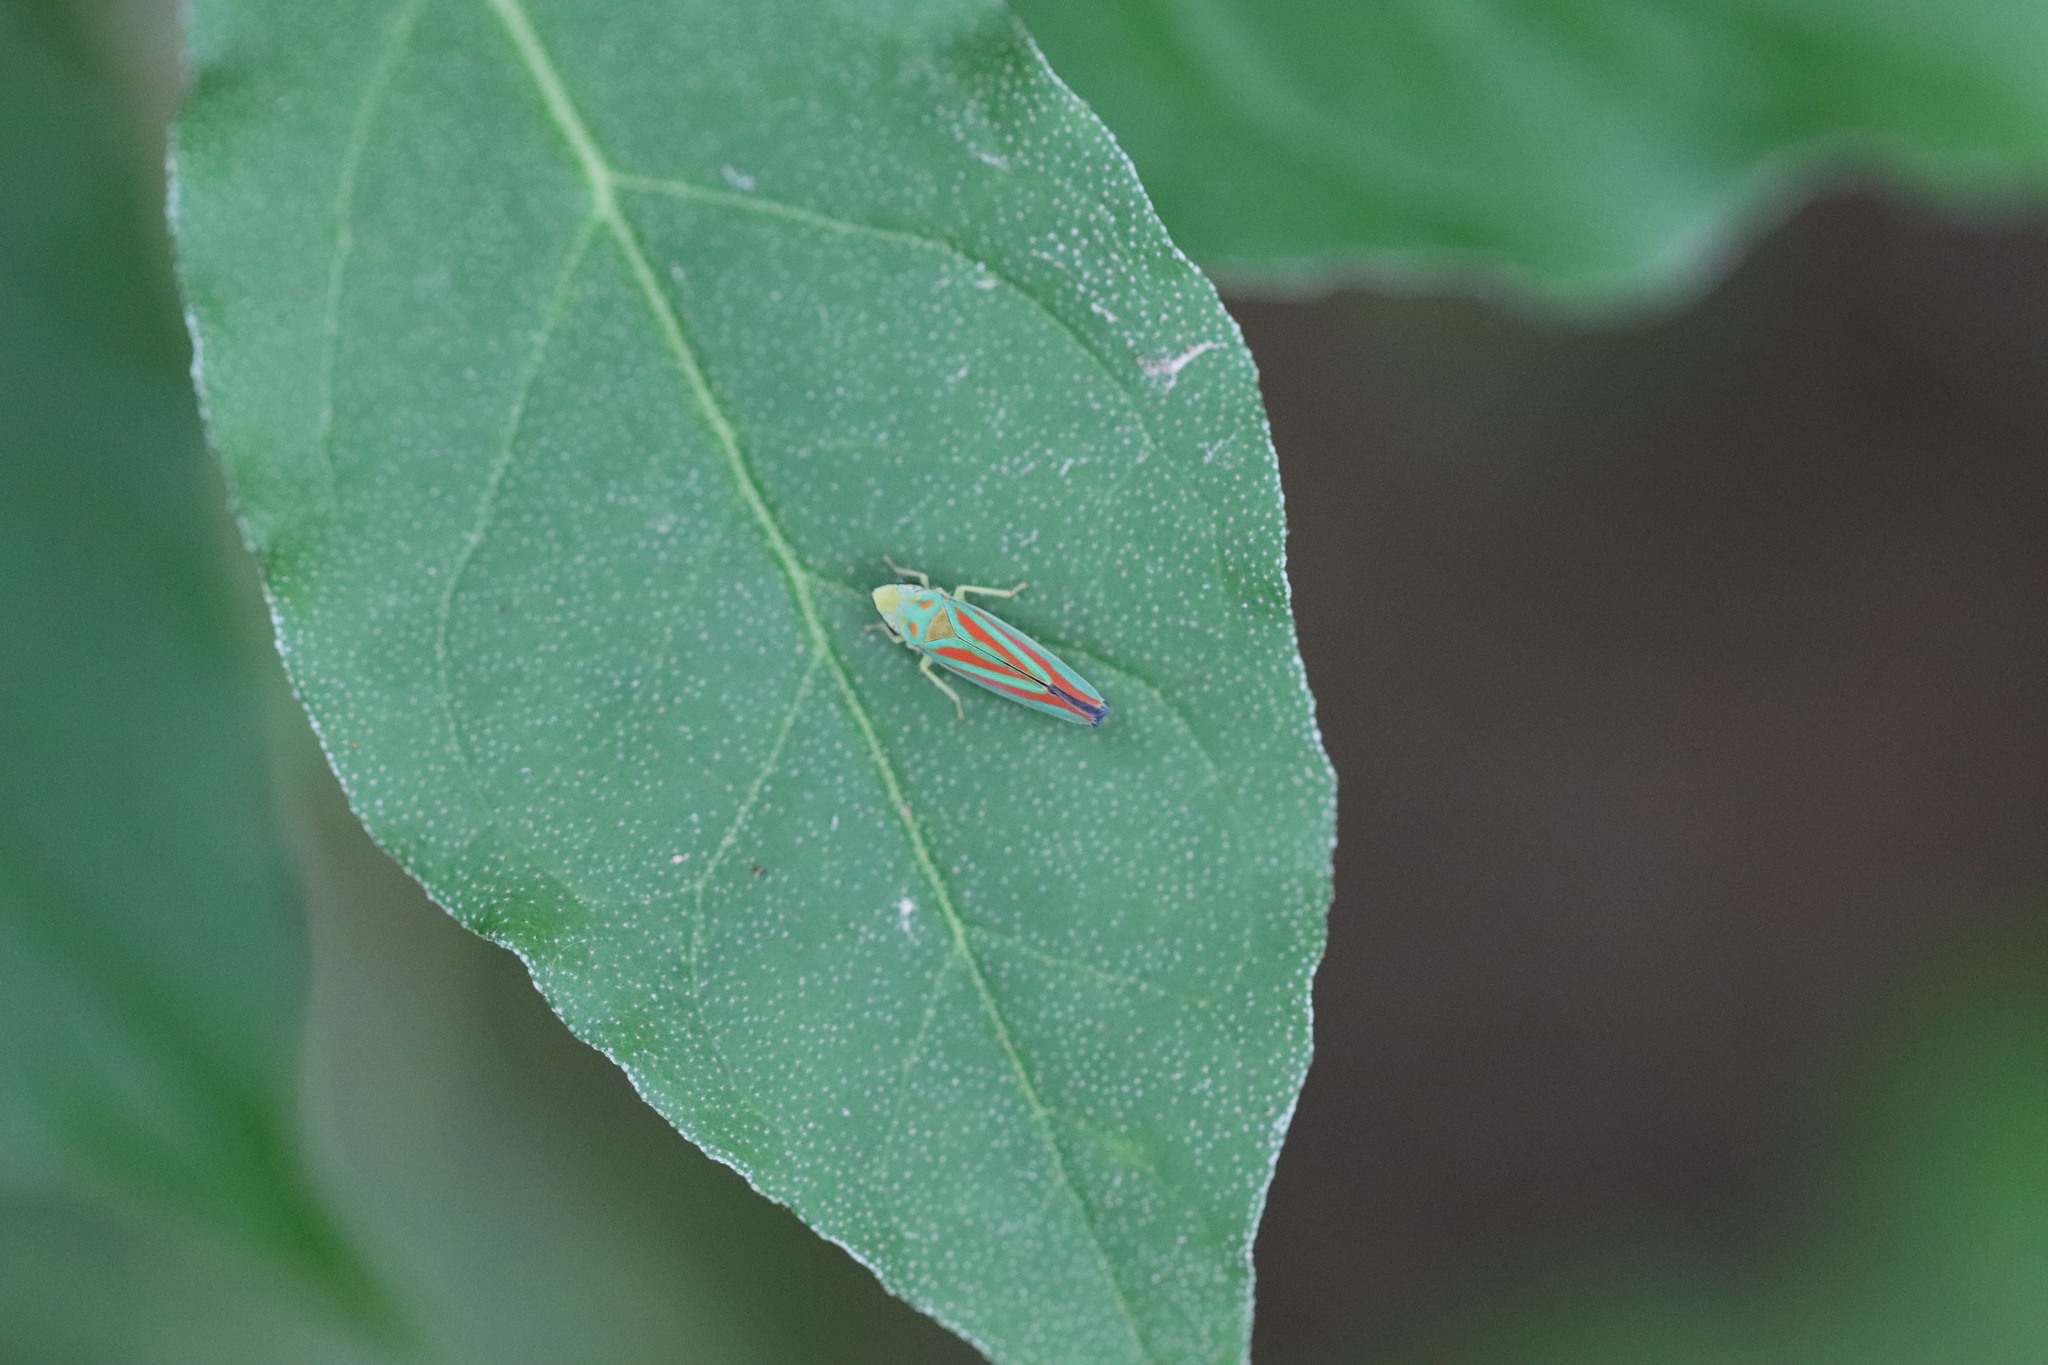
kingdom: Animalia
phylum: Arthropoda
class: Insecta
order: Hemiptera
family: Cicadellidae
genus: Graphocephala
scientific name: Graphocephala coccinea
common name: Candy-striped leafhopper
